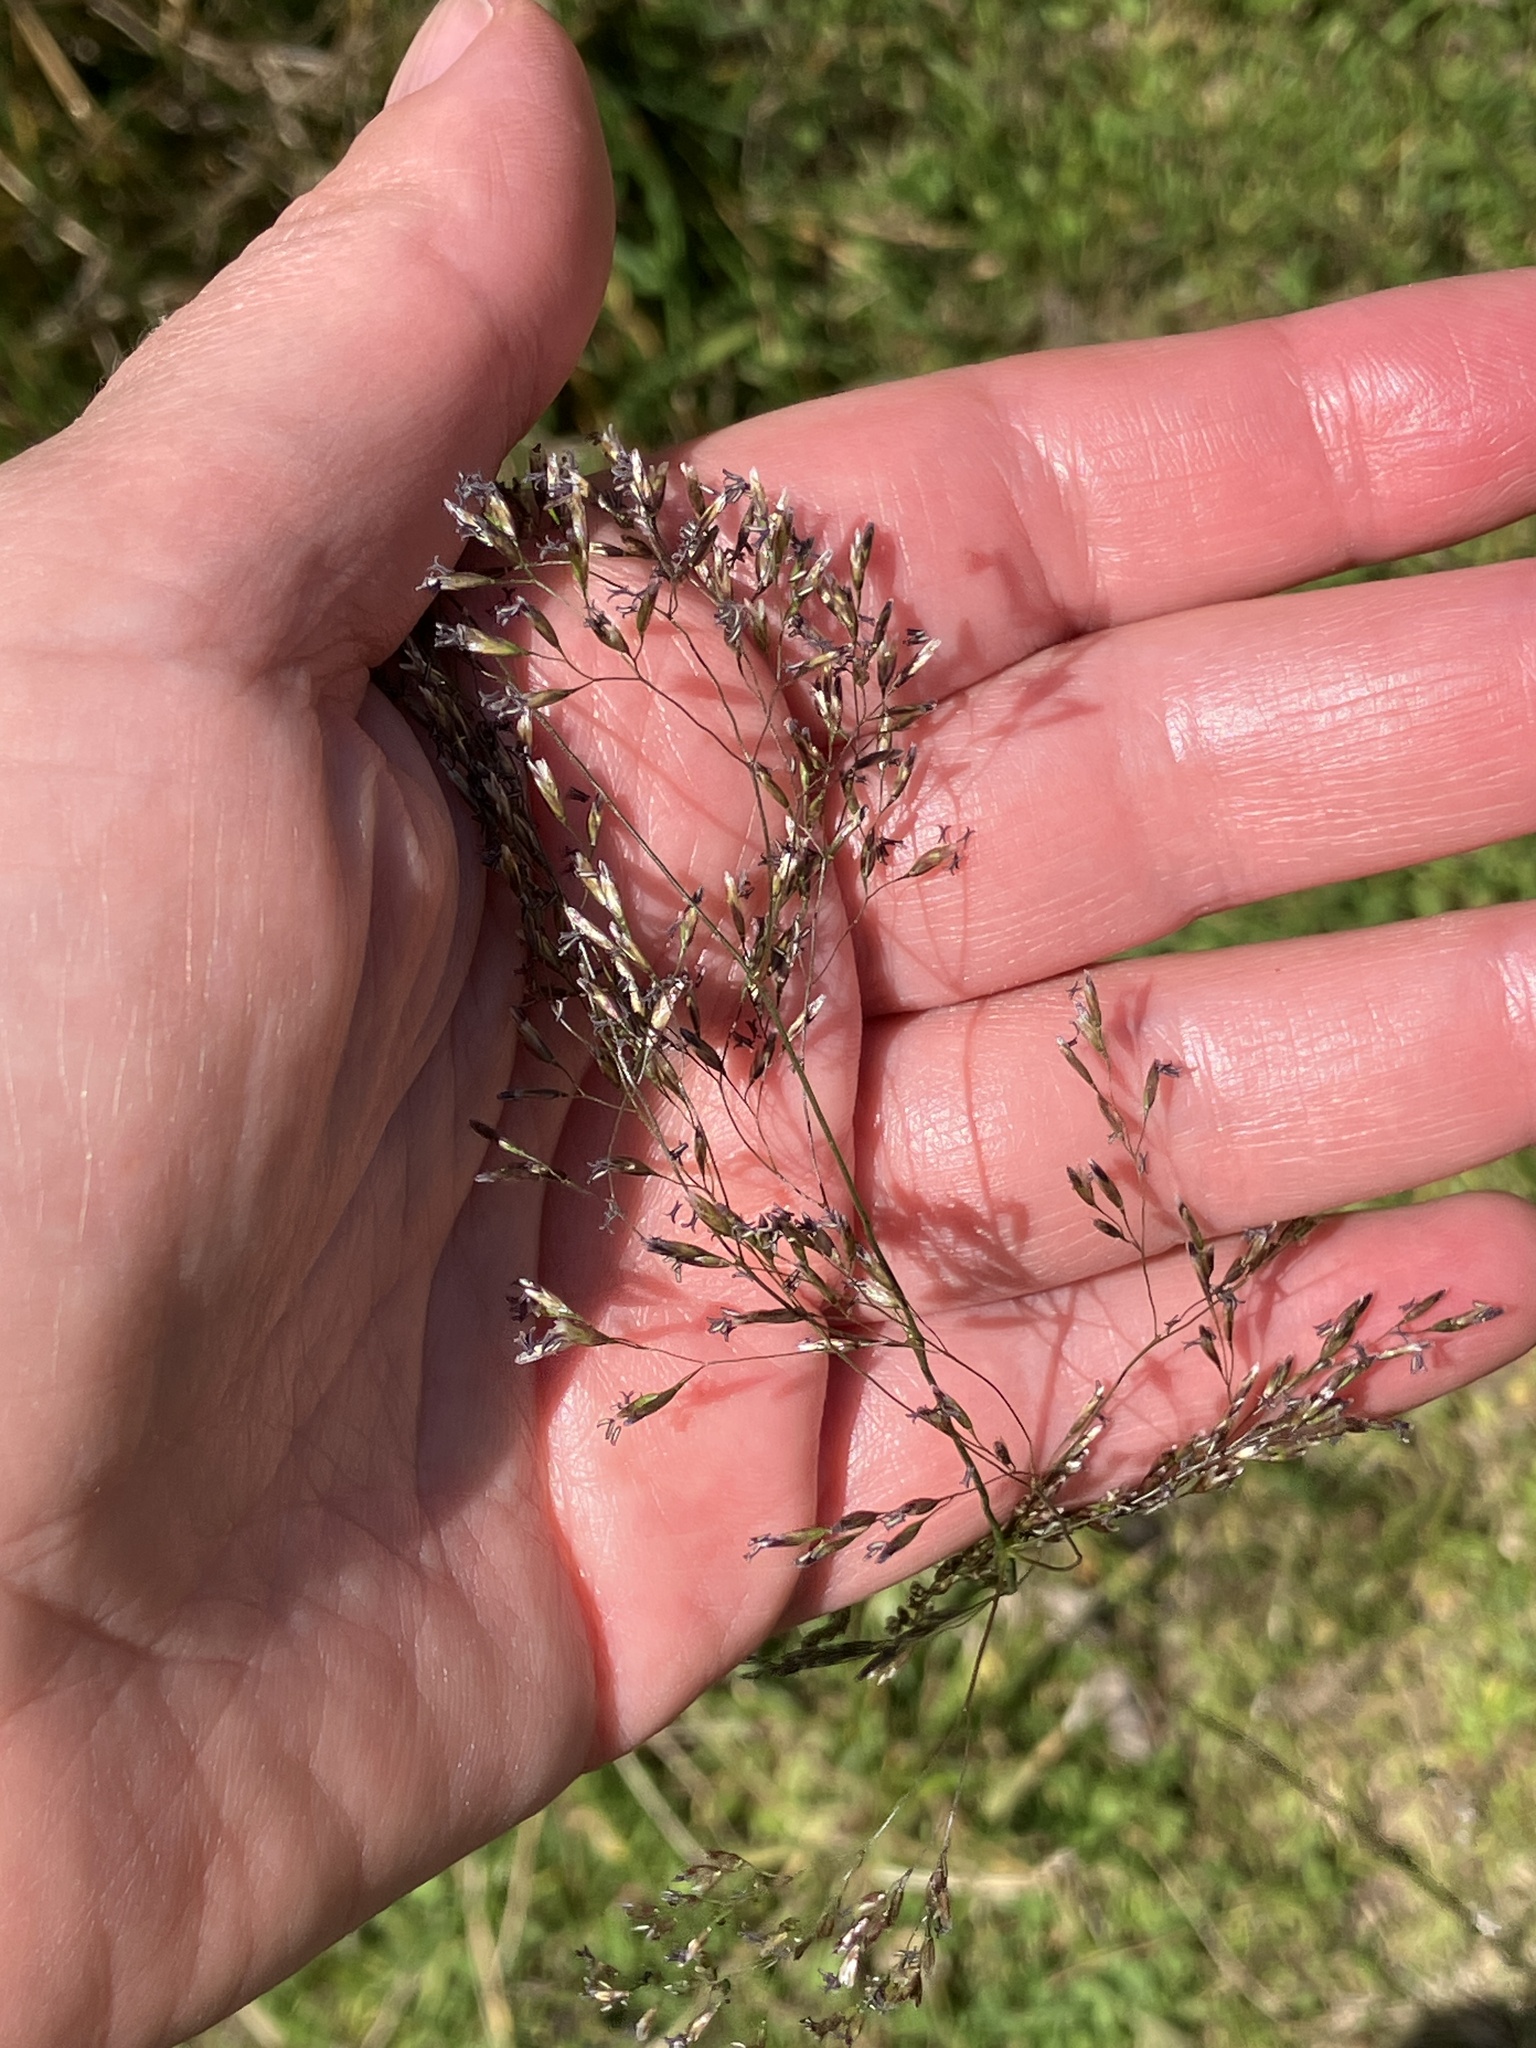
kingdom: Plantae
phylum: Tracheophyta
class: Liliopsida
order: Poales
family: Poaceae
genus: Deschampsia
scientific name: Deschampsia cespitosa
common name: Tufted hair-grass
